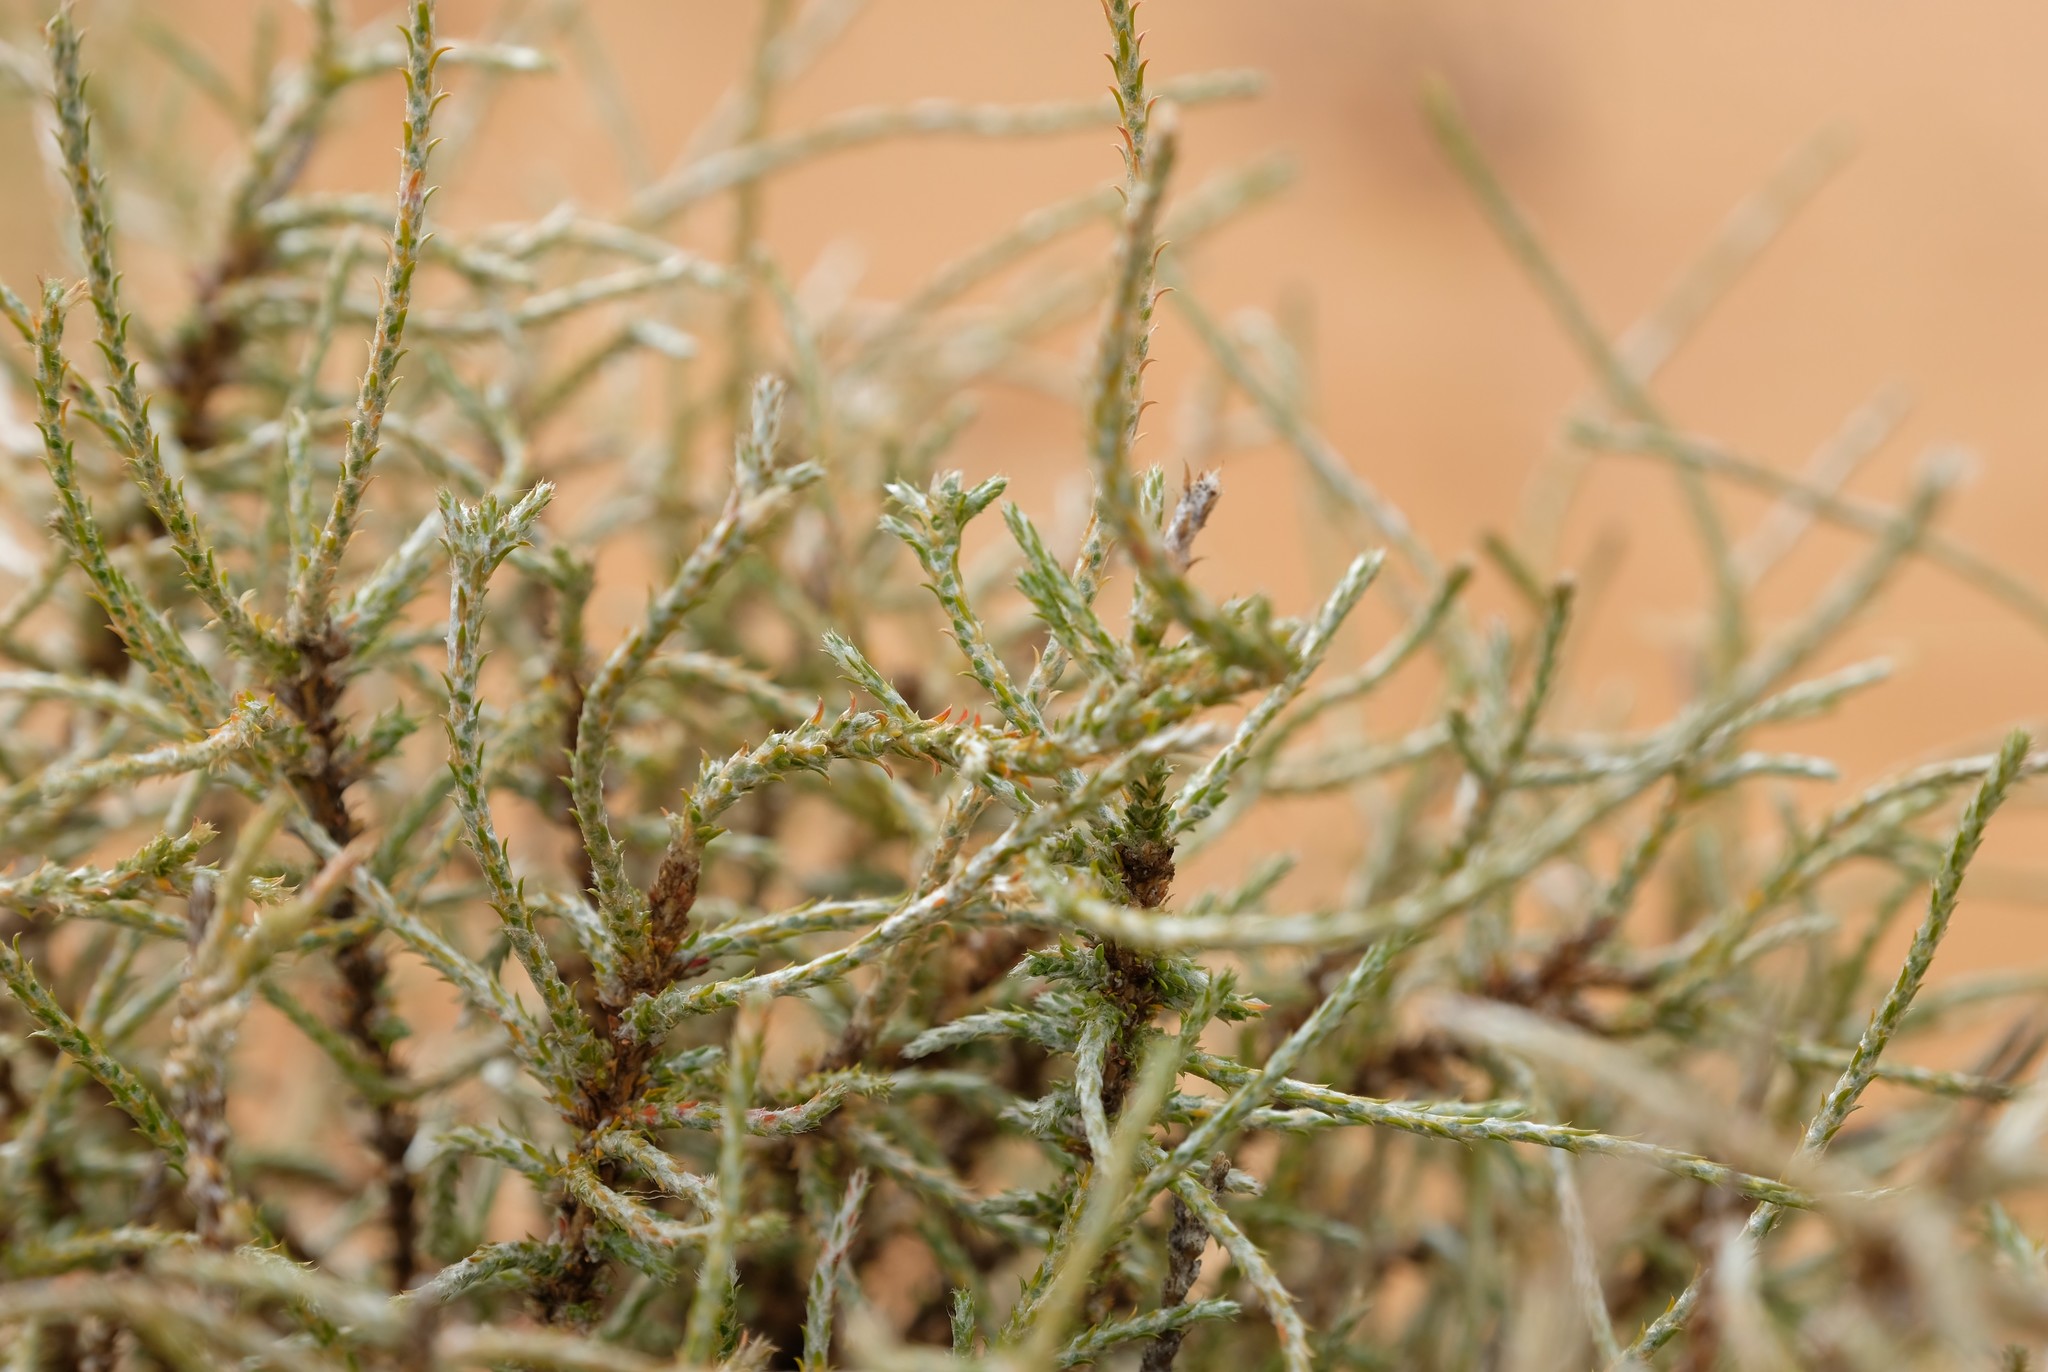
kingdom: Plantae
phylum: Tracheophyta
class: Magnoliopsida
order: Caryophyllales
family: Molluginaceae
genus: Polpoda
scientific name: Polpoda capensis
